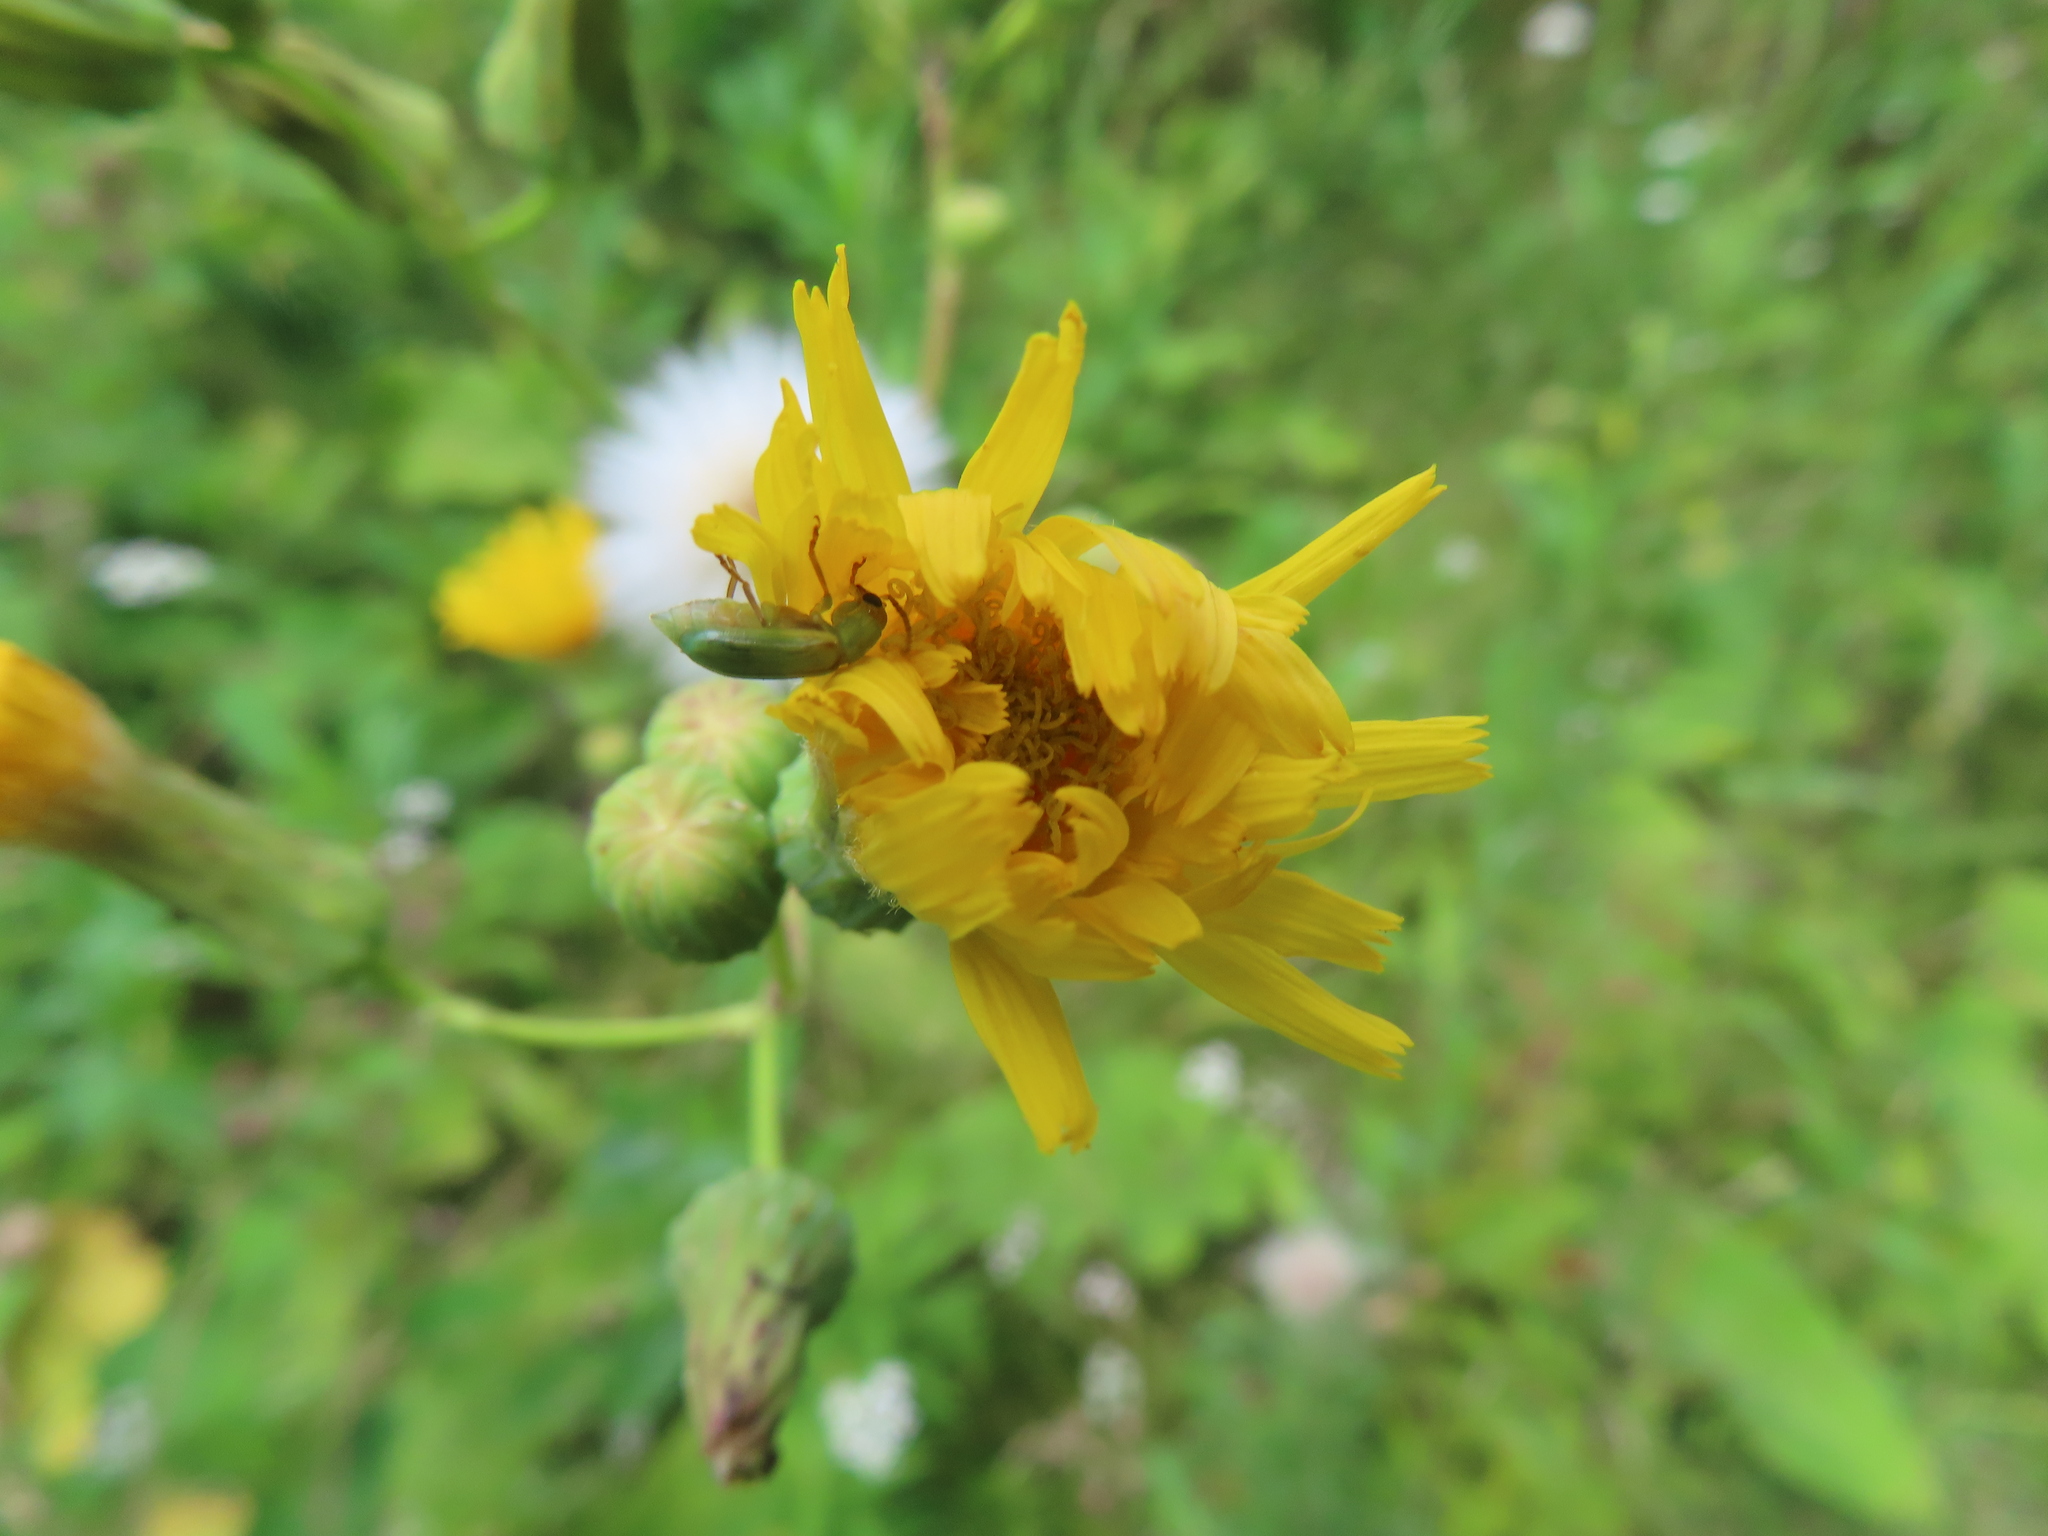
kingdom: Animalia
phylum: Arthropoda
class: Insecta
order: Coleoptera
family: Chrysomelidae
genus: Diabrotica
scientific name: Diabrotica barberi
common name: Northern corn rootworm
